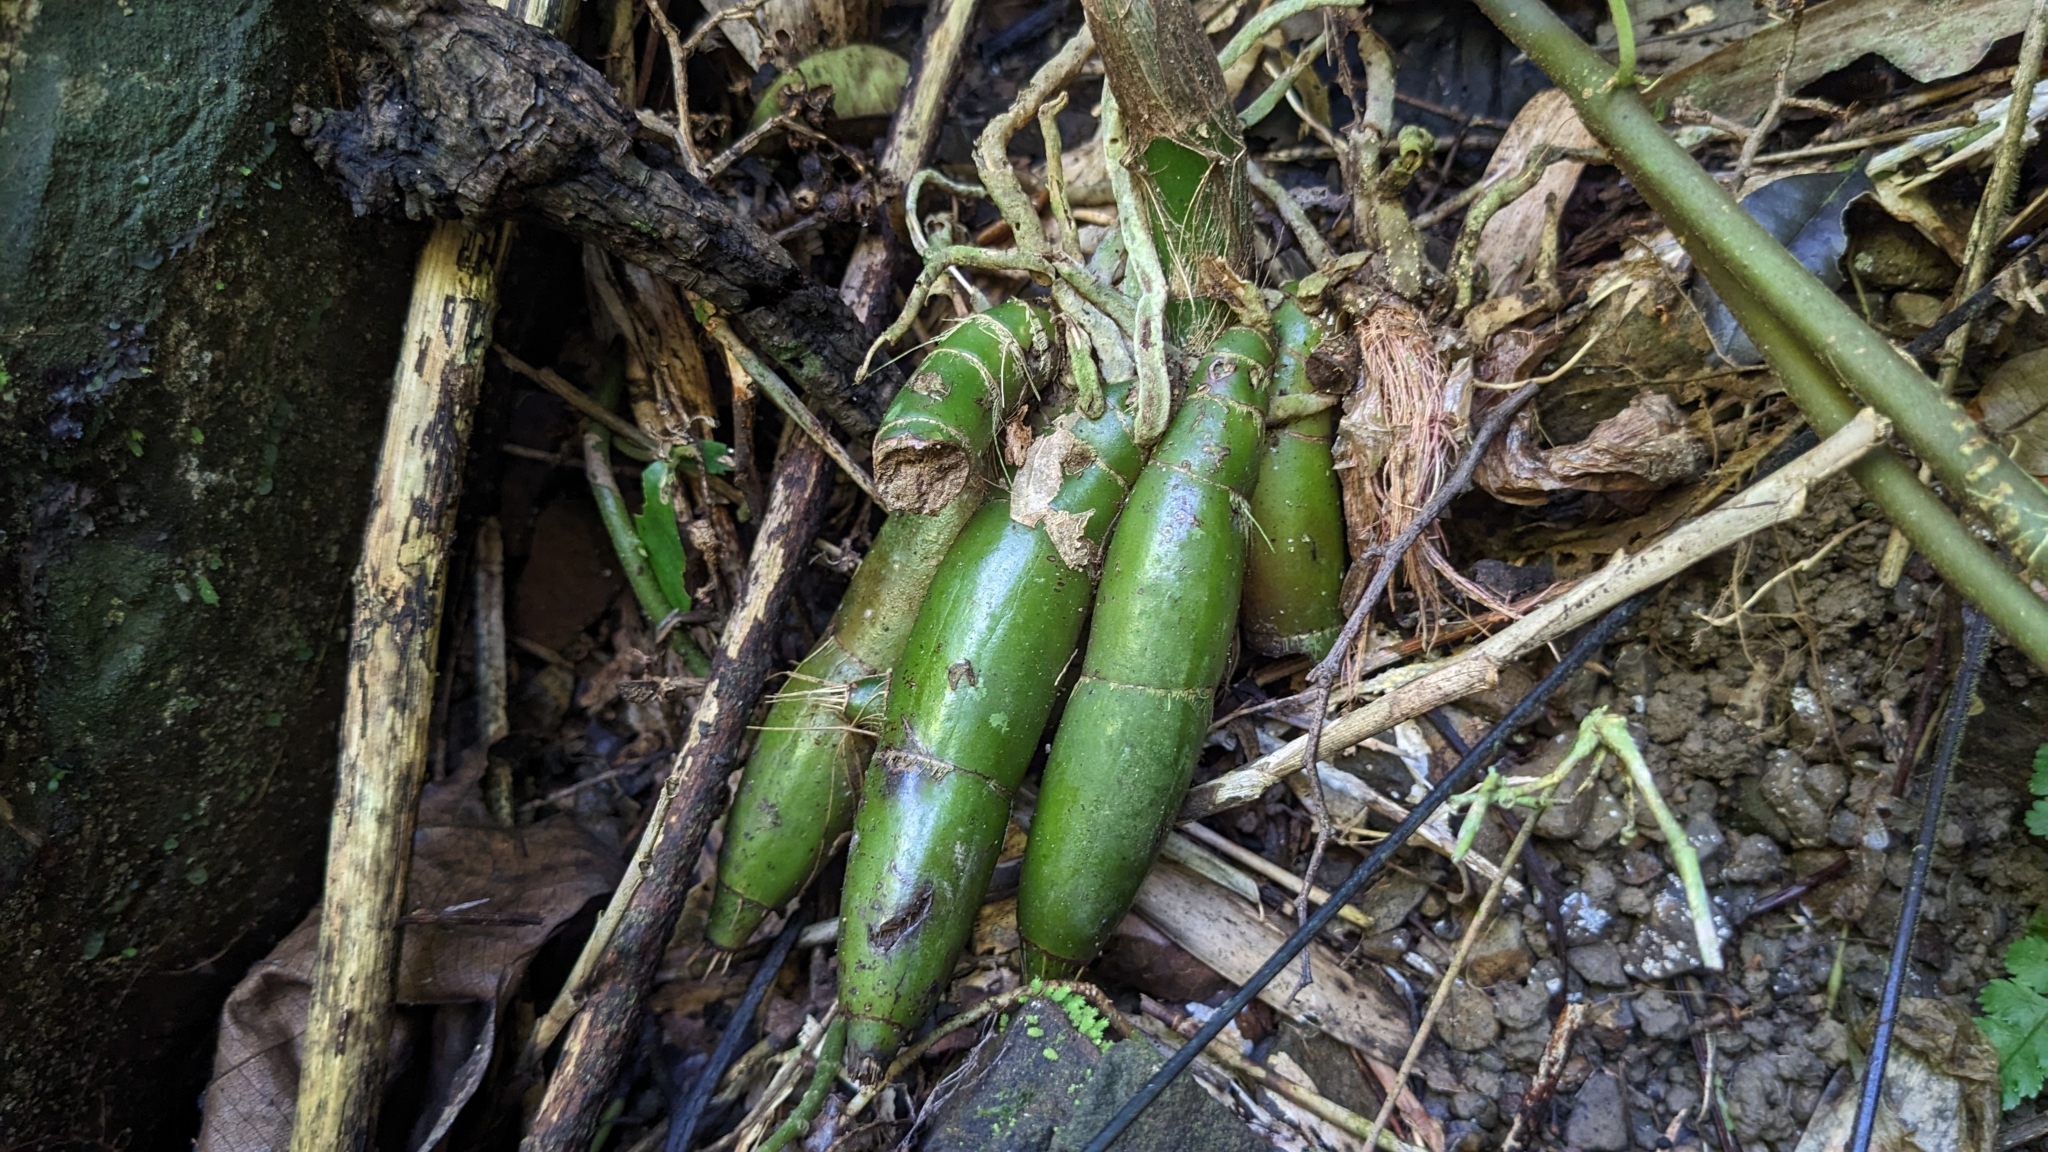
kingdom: Plantae
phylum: Tracheophyta
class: Liliopsida
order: Asparagales
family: Orchidaceae
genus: Eulophia
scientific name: Eulophia pulchra
